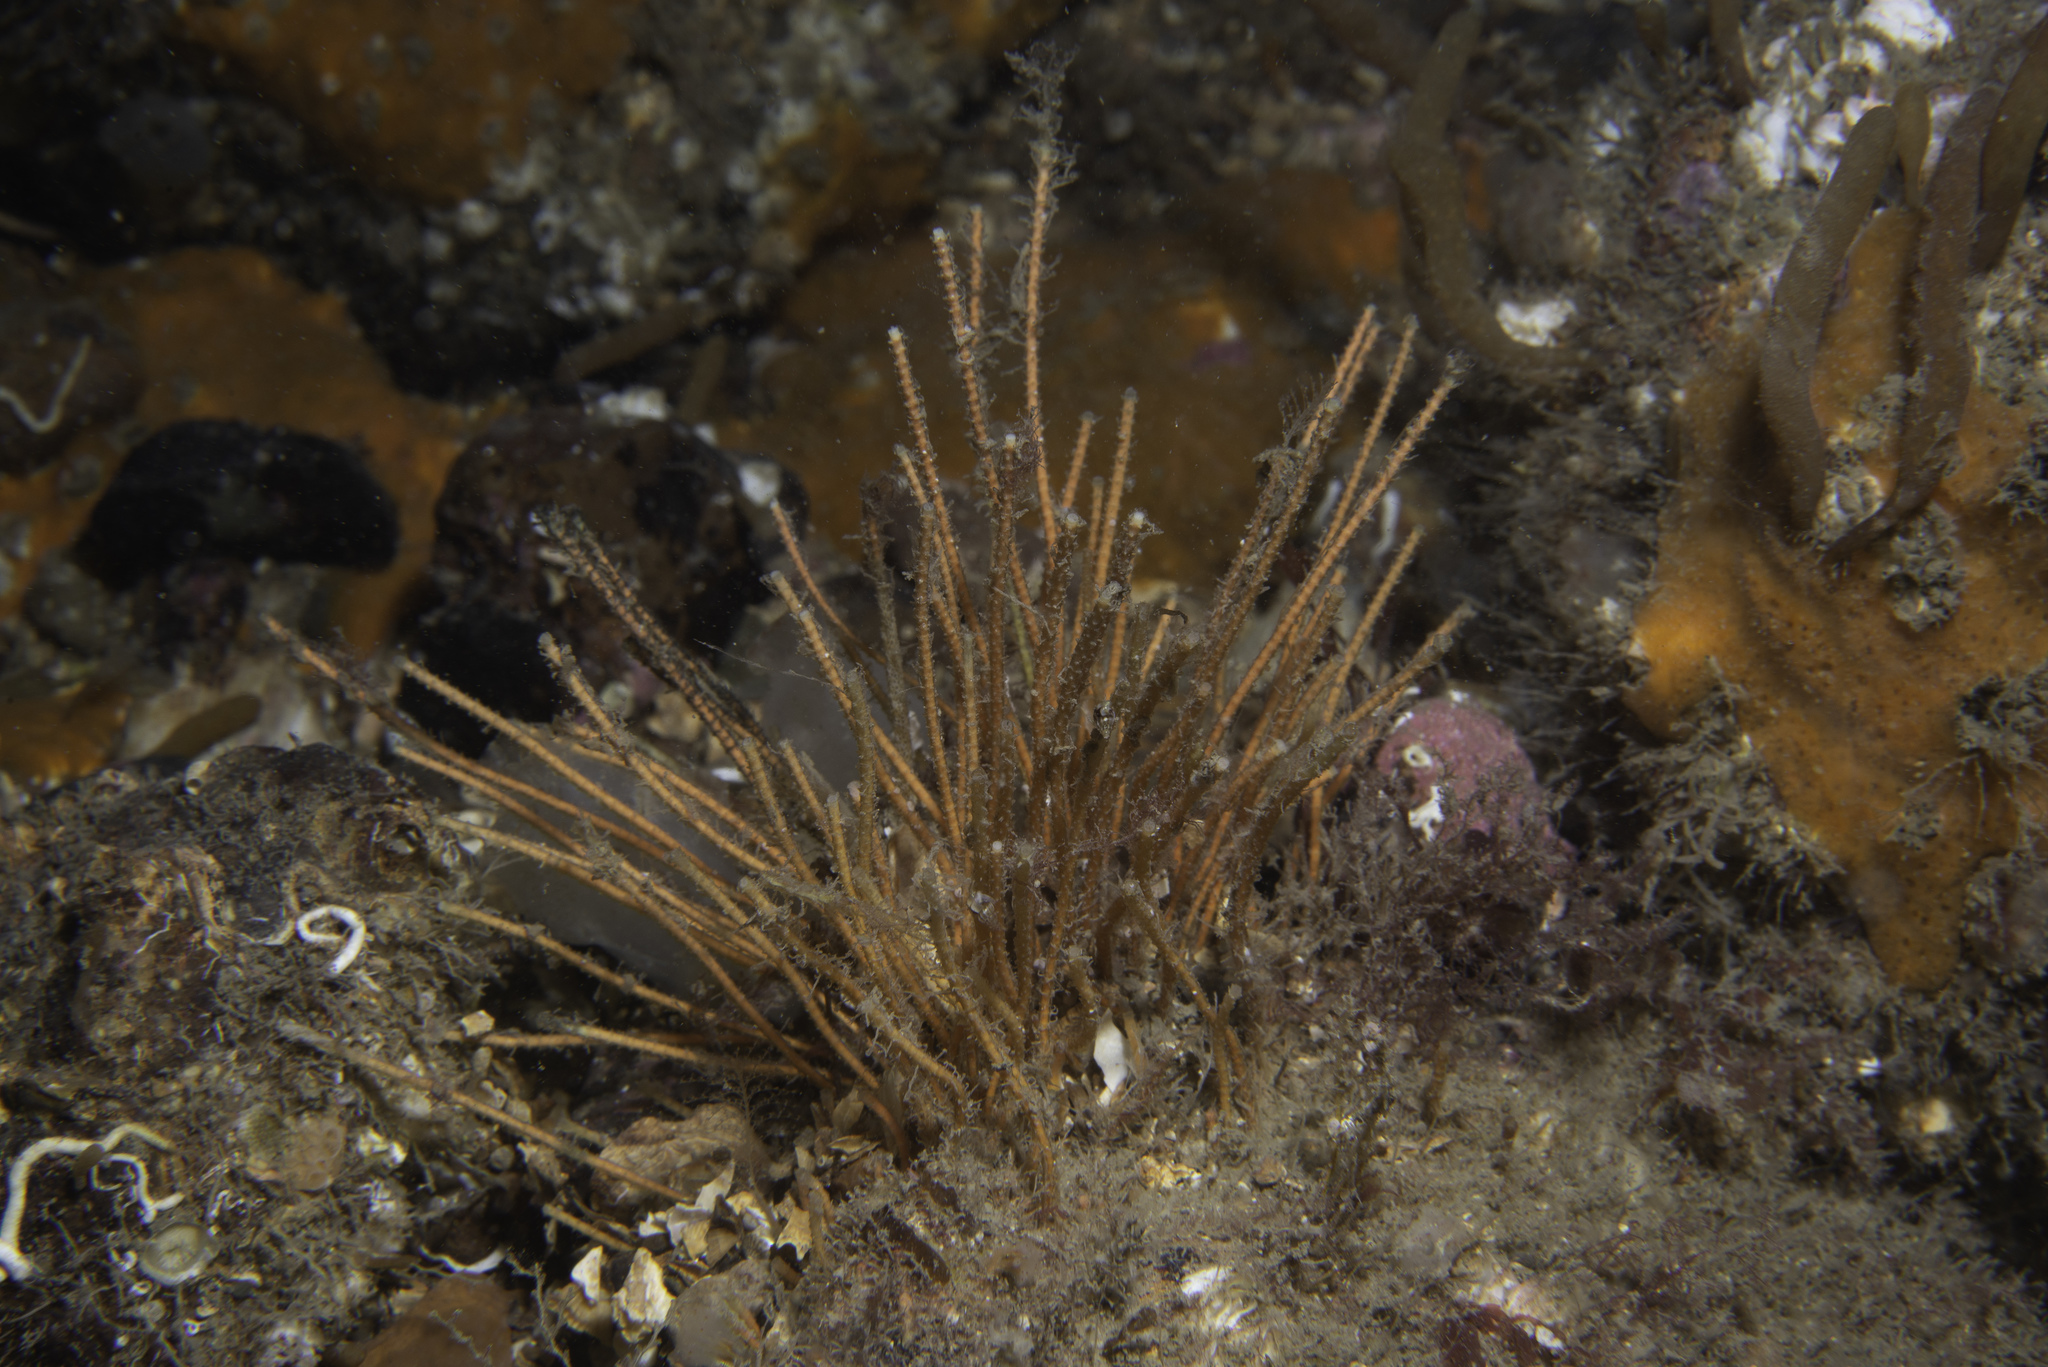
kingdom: Animalia
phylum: Cnidaria
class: Hydrozoa
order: Leptothecata
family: Plumulariidae
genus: Nemertesia
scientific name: Nemertesia antennina
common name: Sea beard
